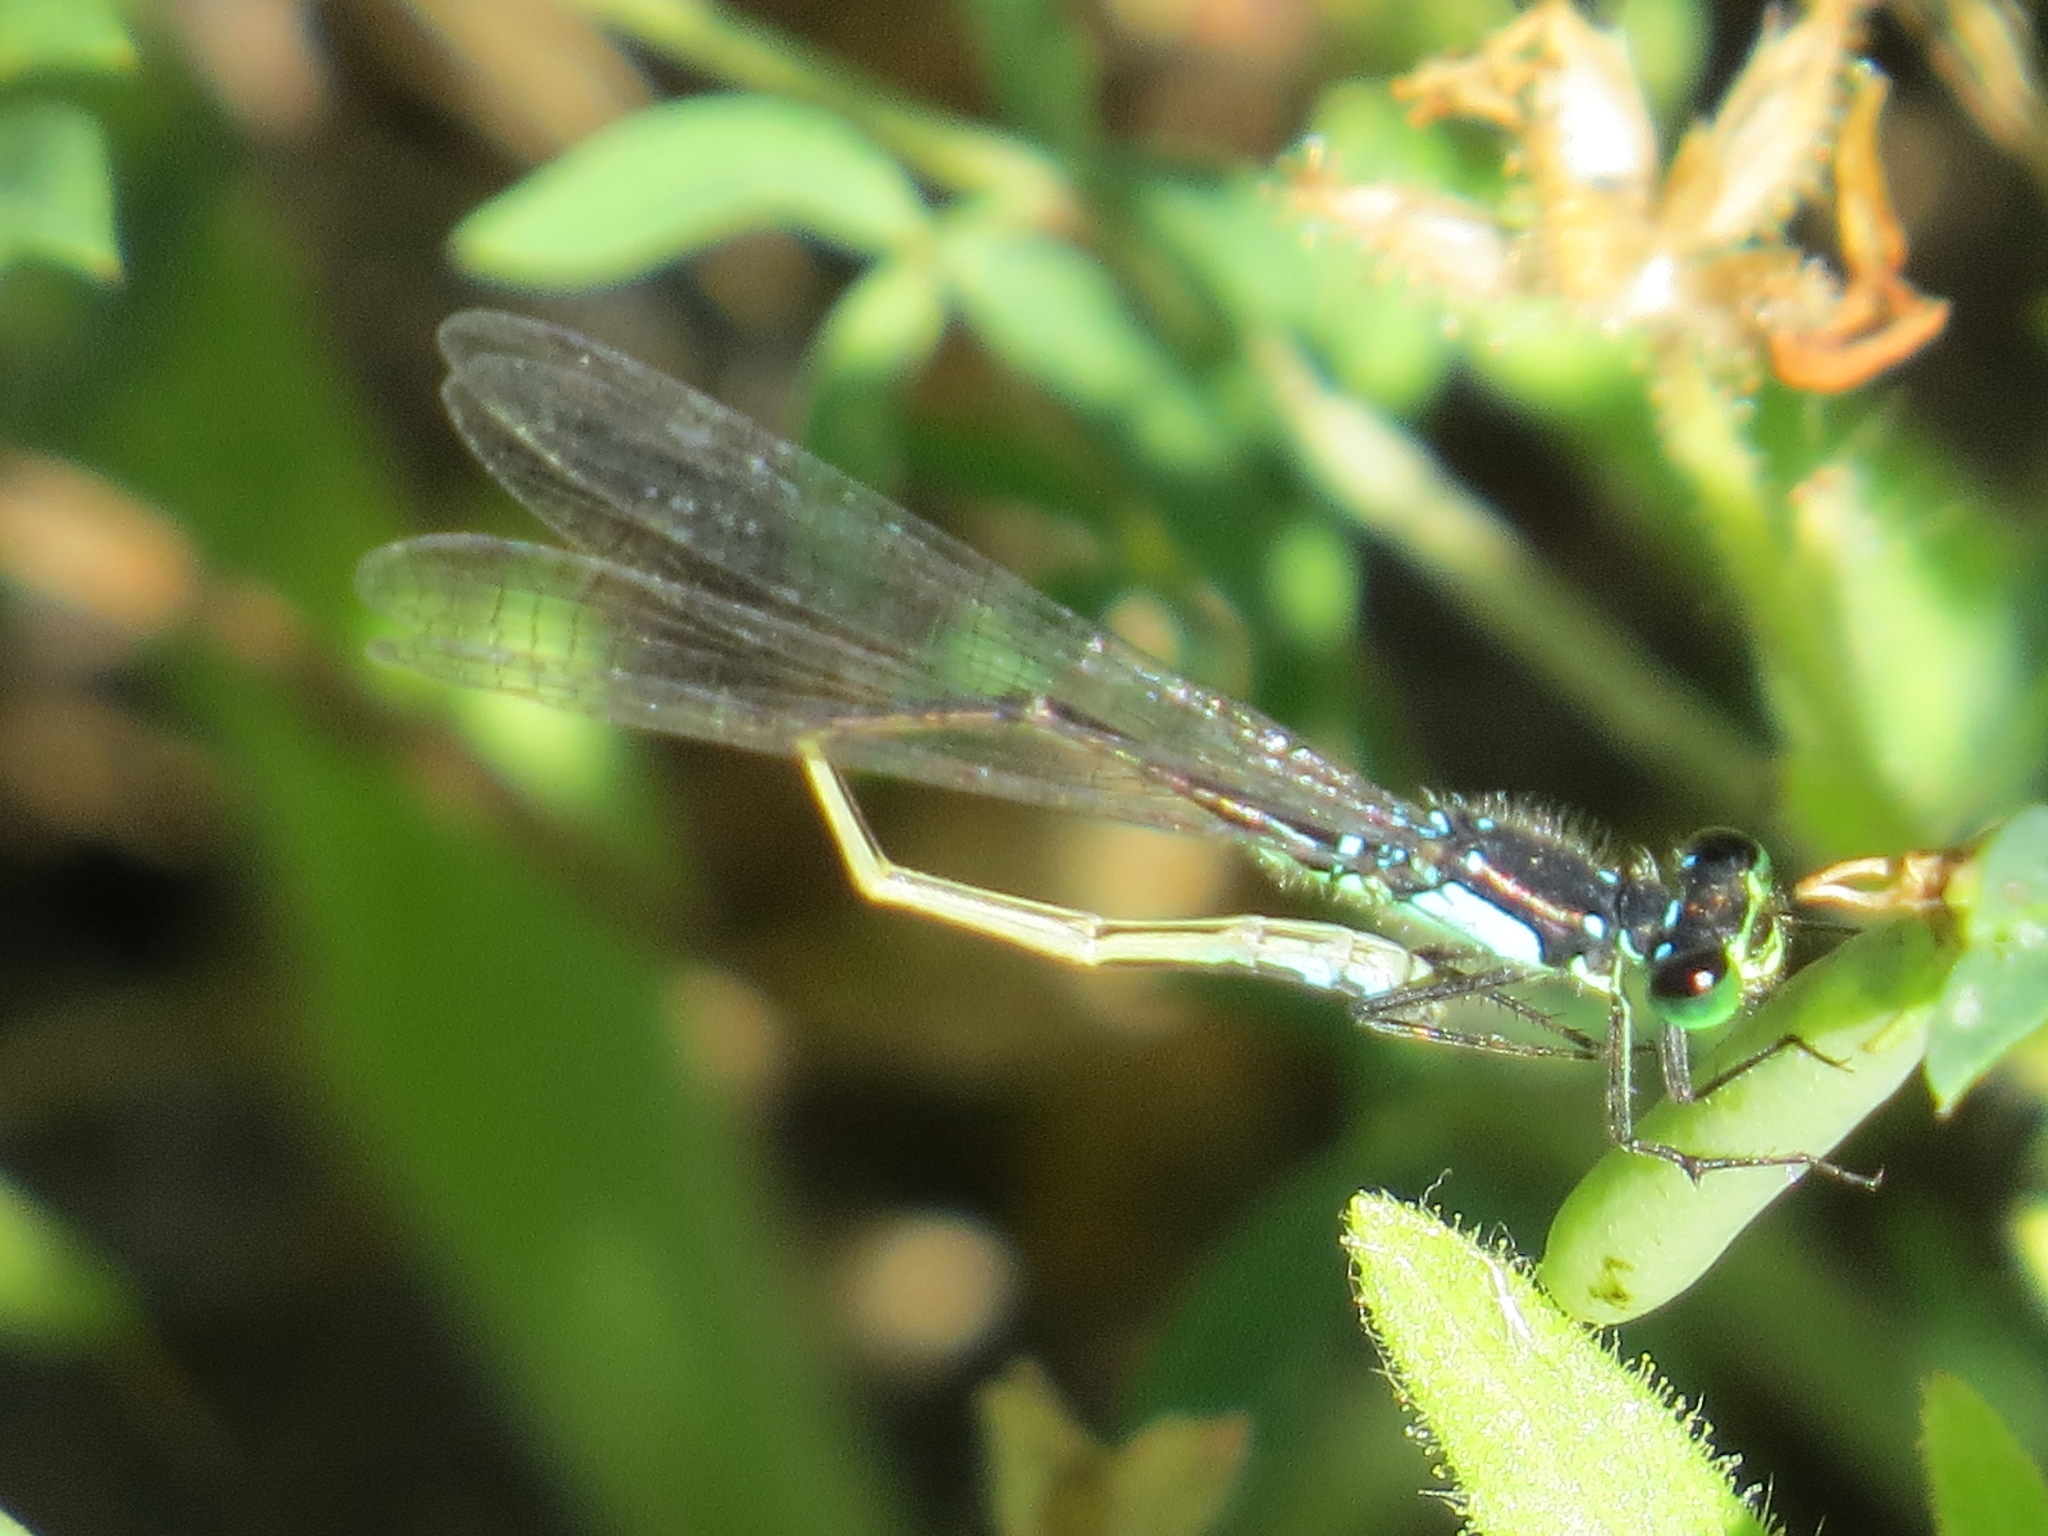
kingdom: Animalia
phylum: Arthropoda
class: Insecta
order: Odonata
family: Coenagrionidae
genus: Ischnura
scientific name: Ischnura cervula
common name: Pacific forktail
